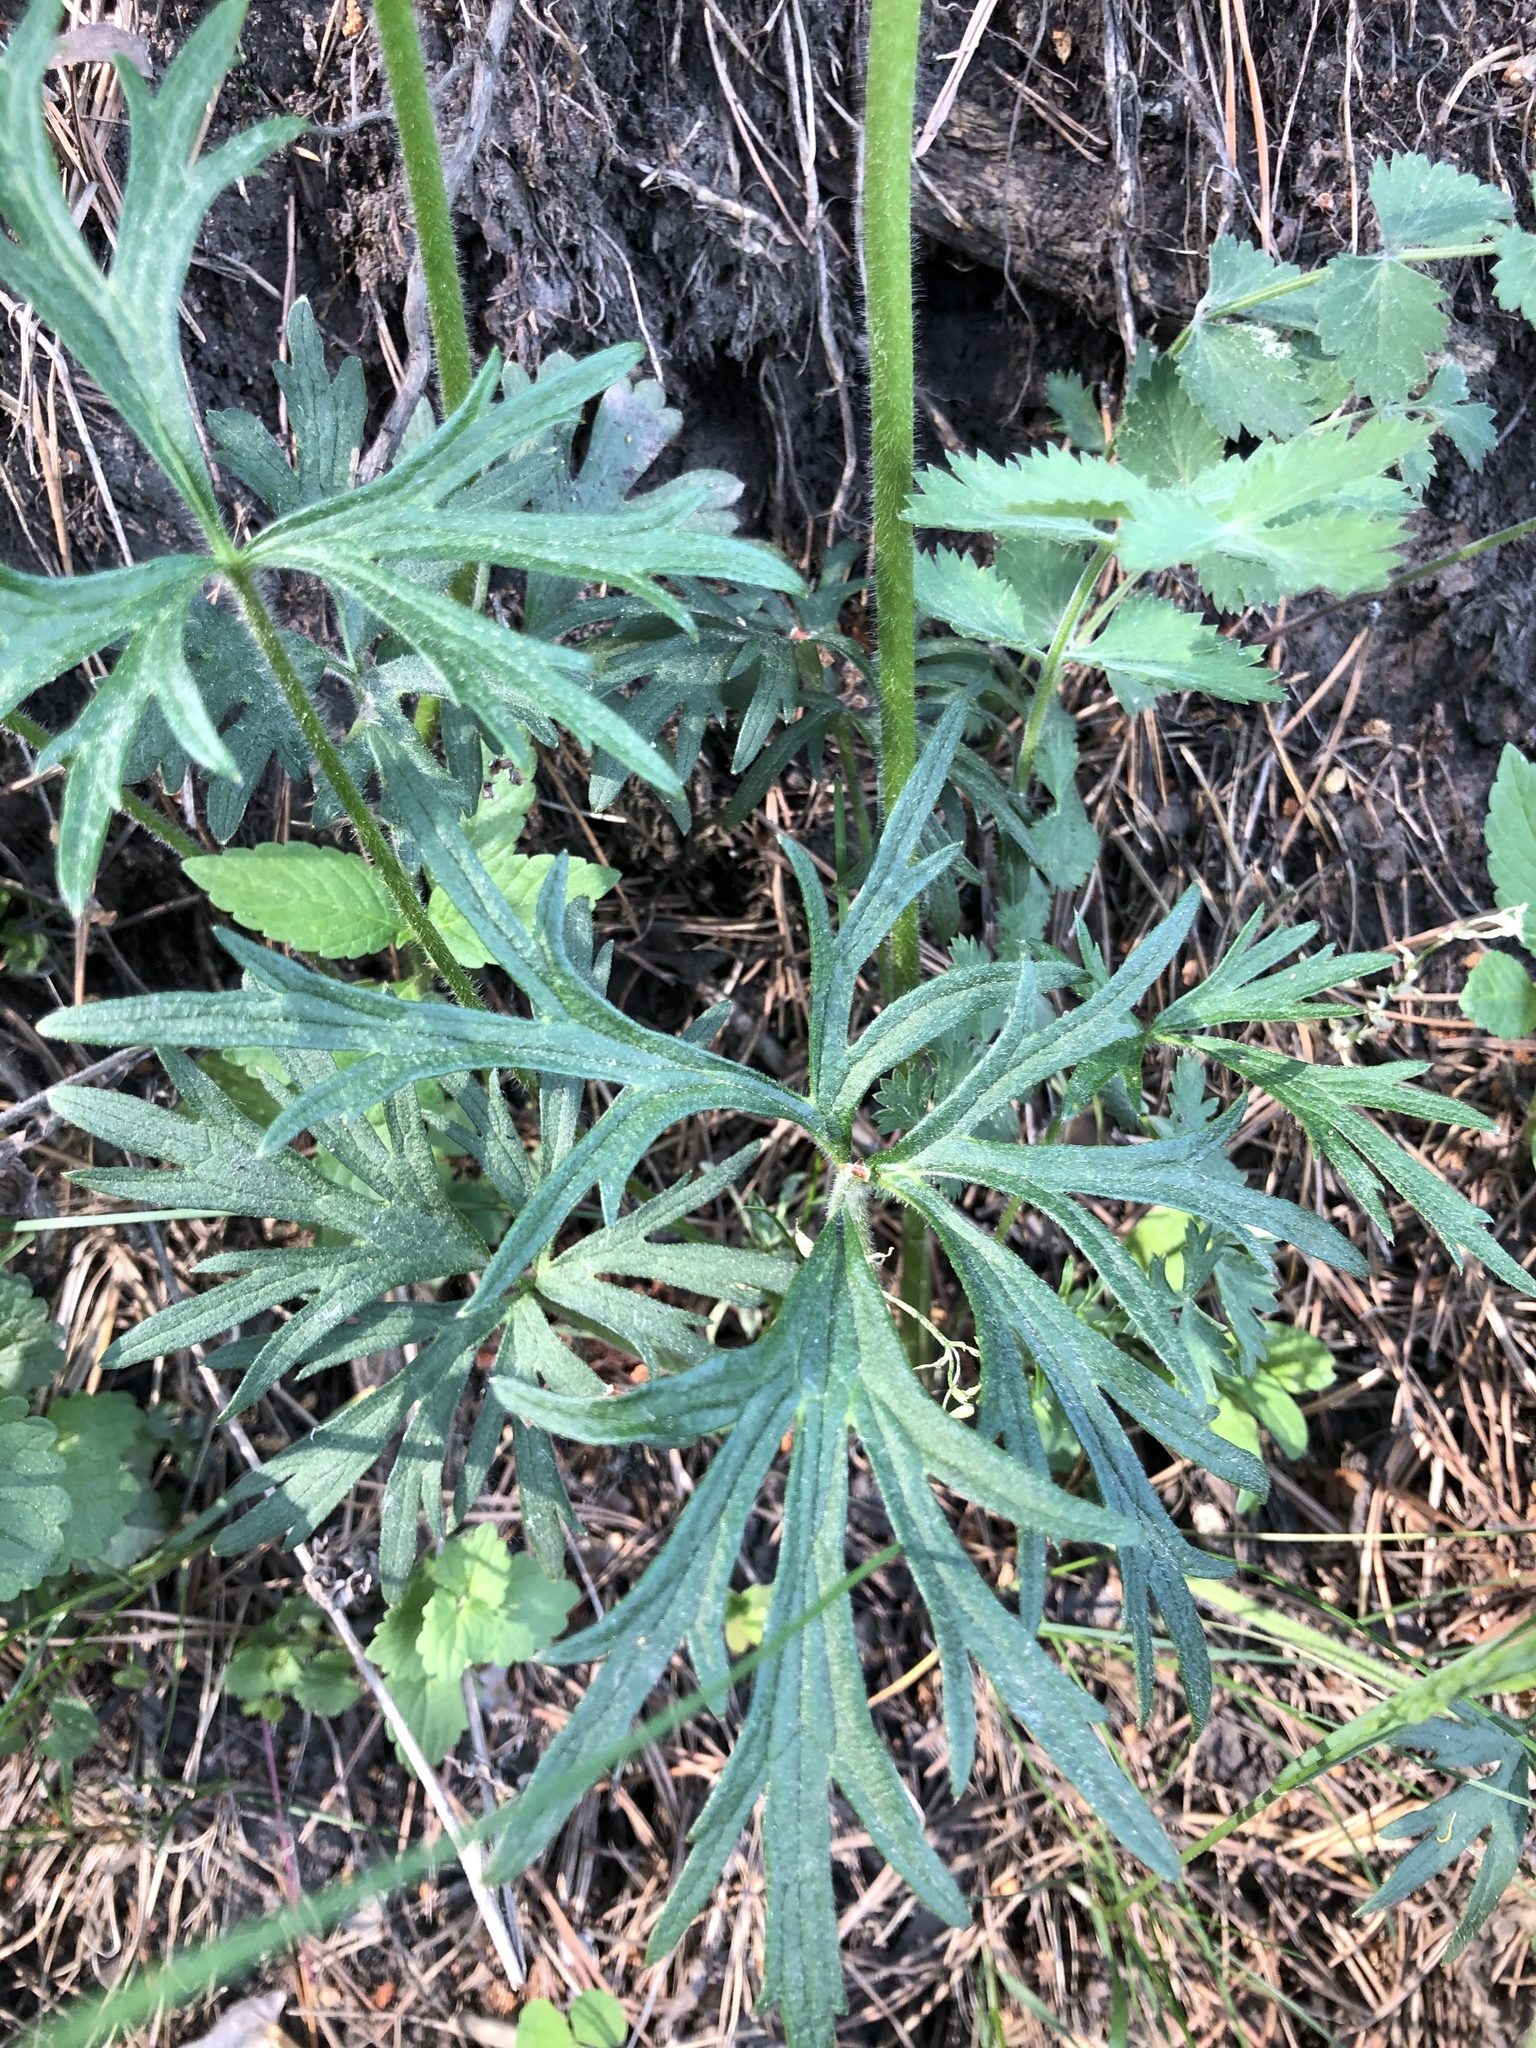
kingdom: Plantae
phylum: Tracheophyta
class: Magnoliopsida
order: Ranunculales
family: Ranunculaceae
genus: Ranunculus
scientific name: Ranunculus polyanthemos
